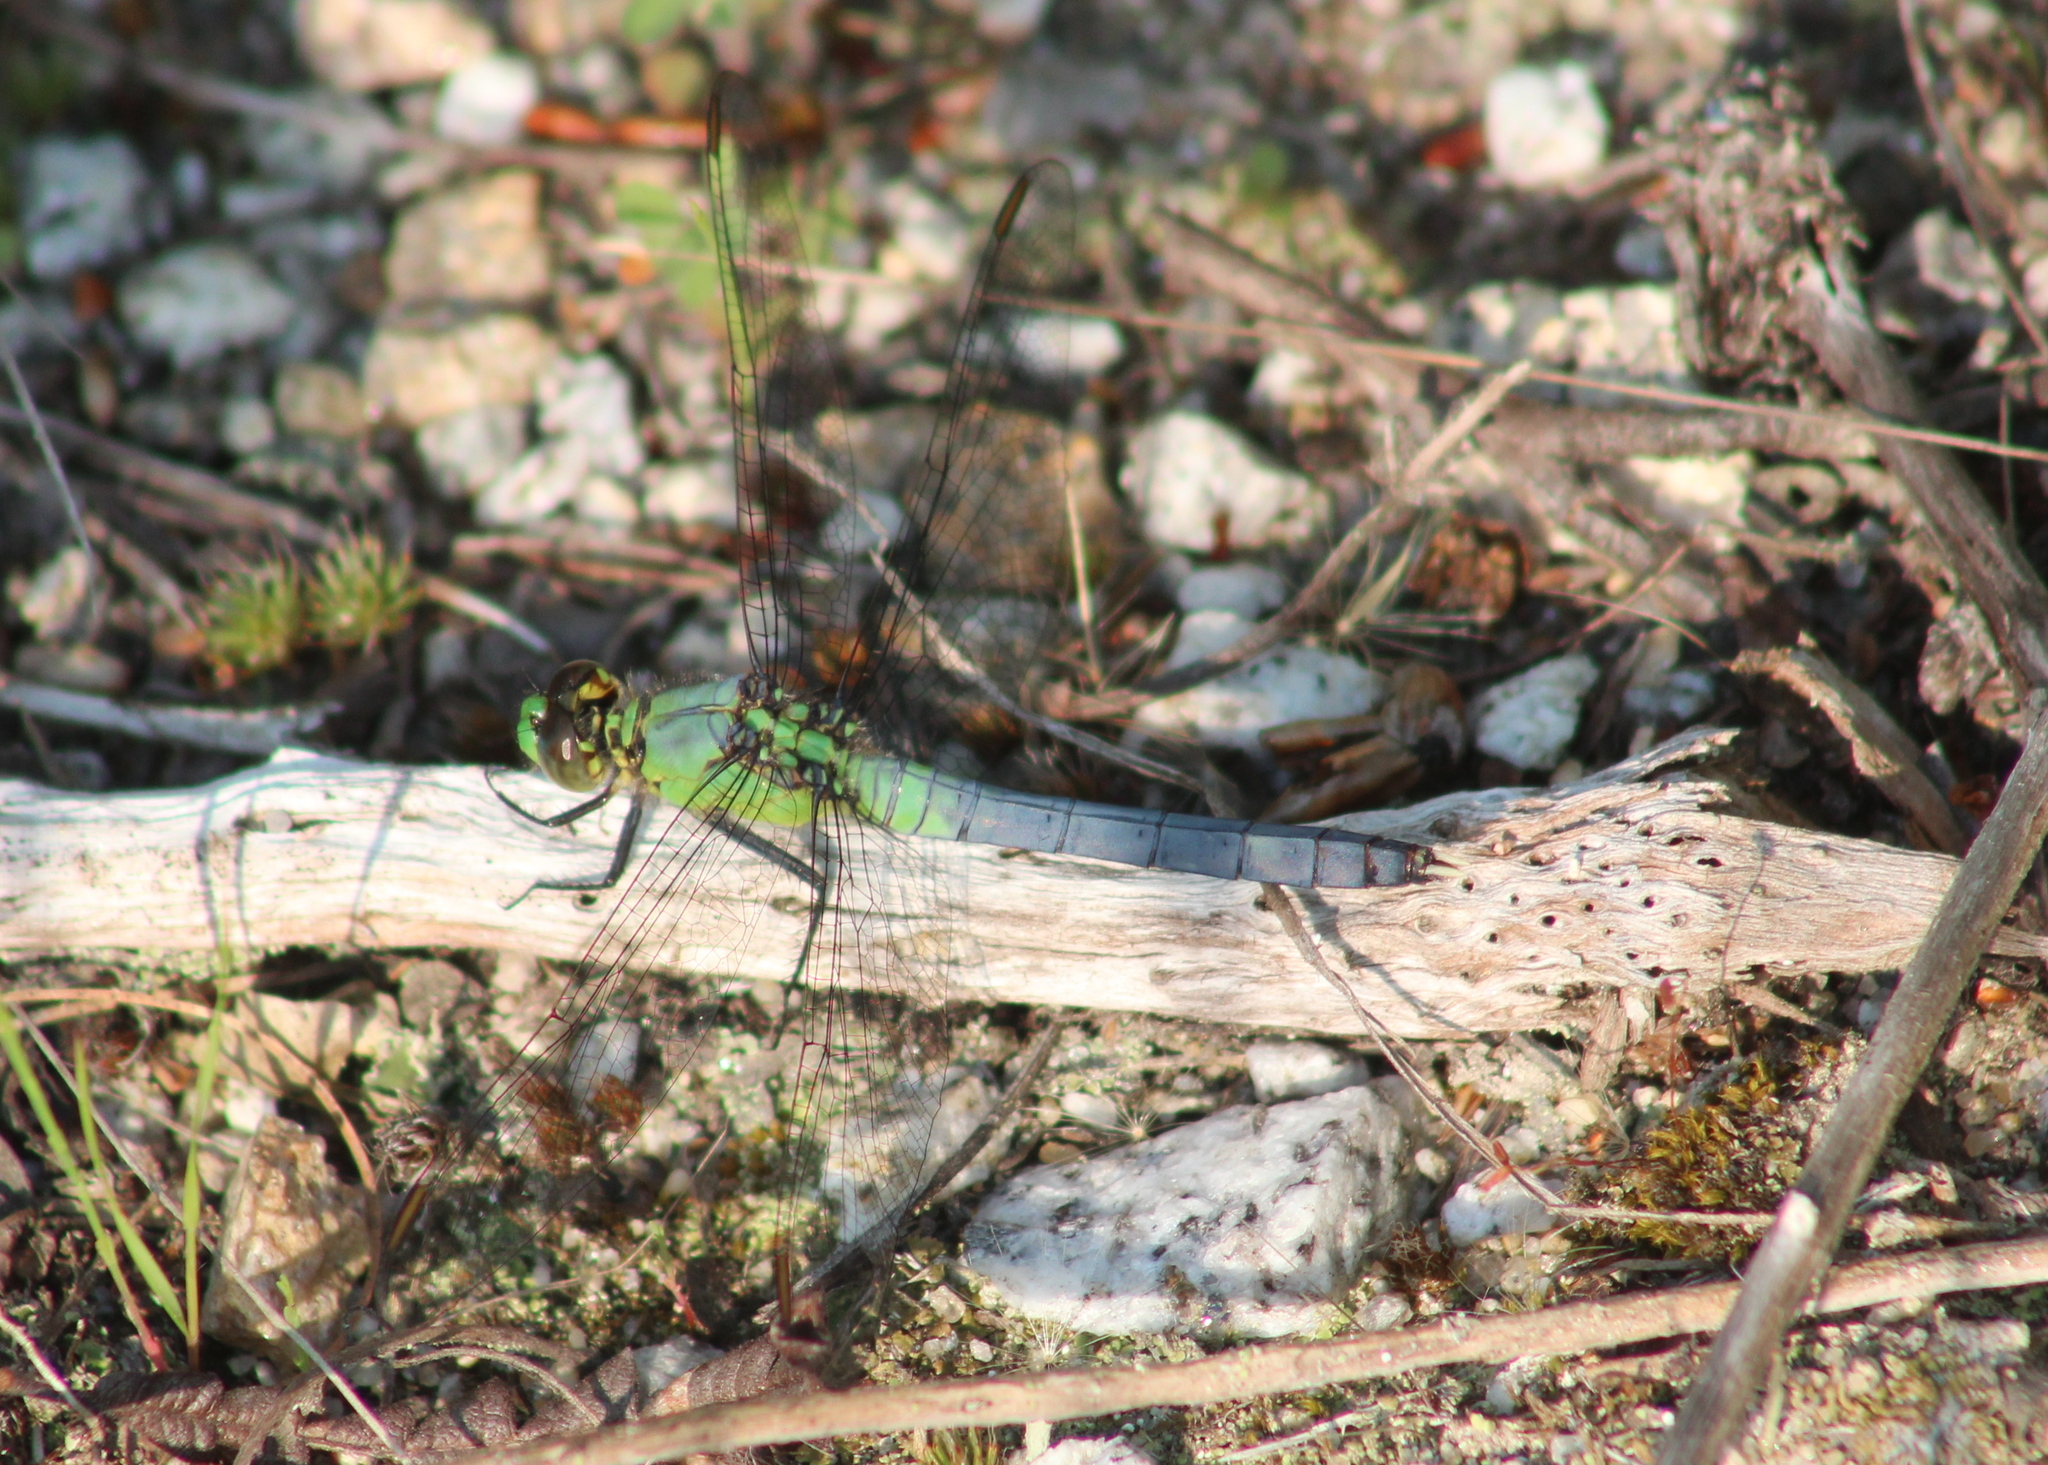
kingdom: Animalia
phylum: Arthropoda
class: Insecta
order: Odonata
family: Libellulidae
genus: Erythemis
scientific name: Erythemis simplicicollis
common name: Eastern pondhawk
